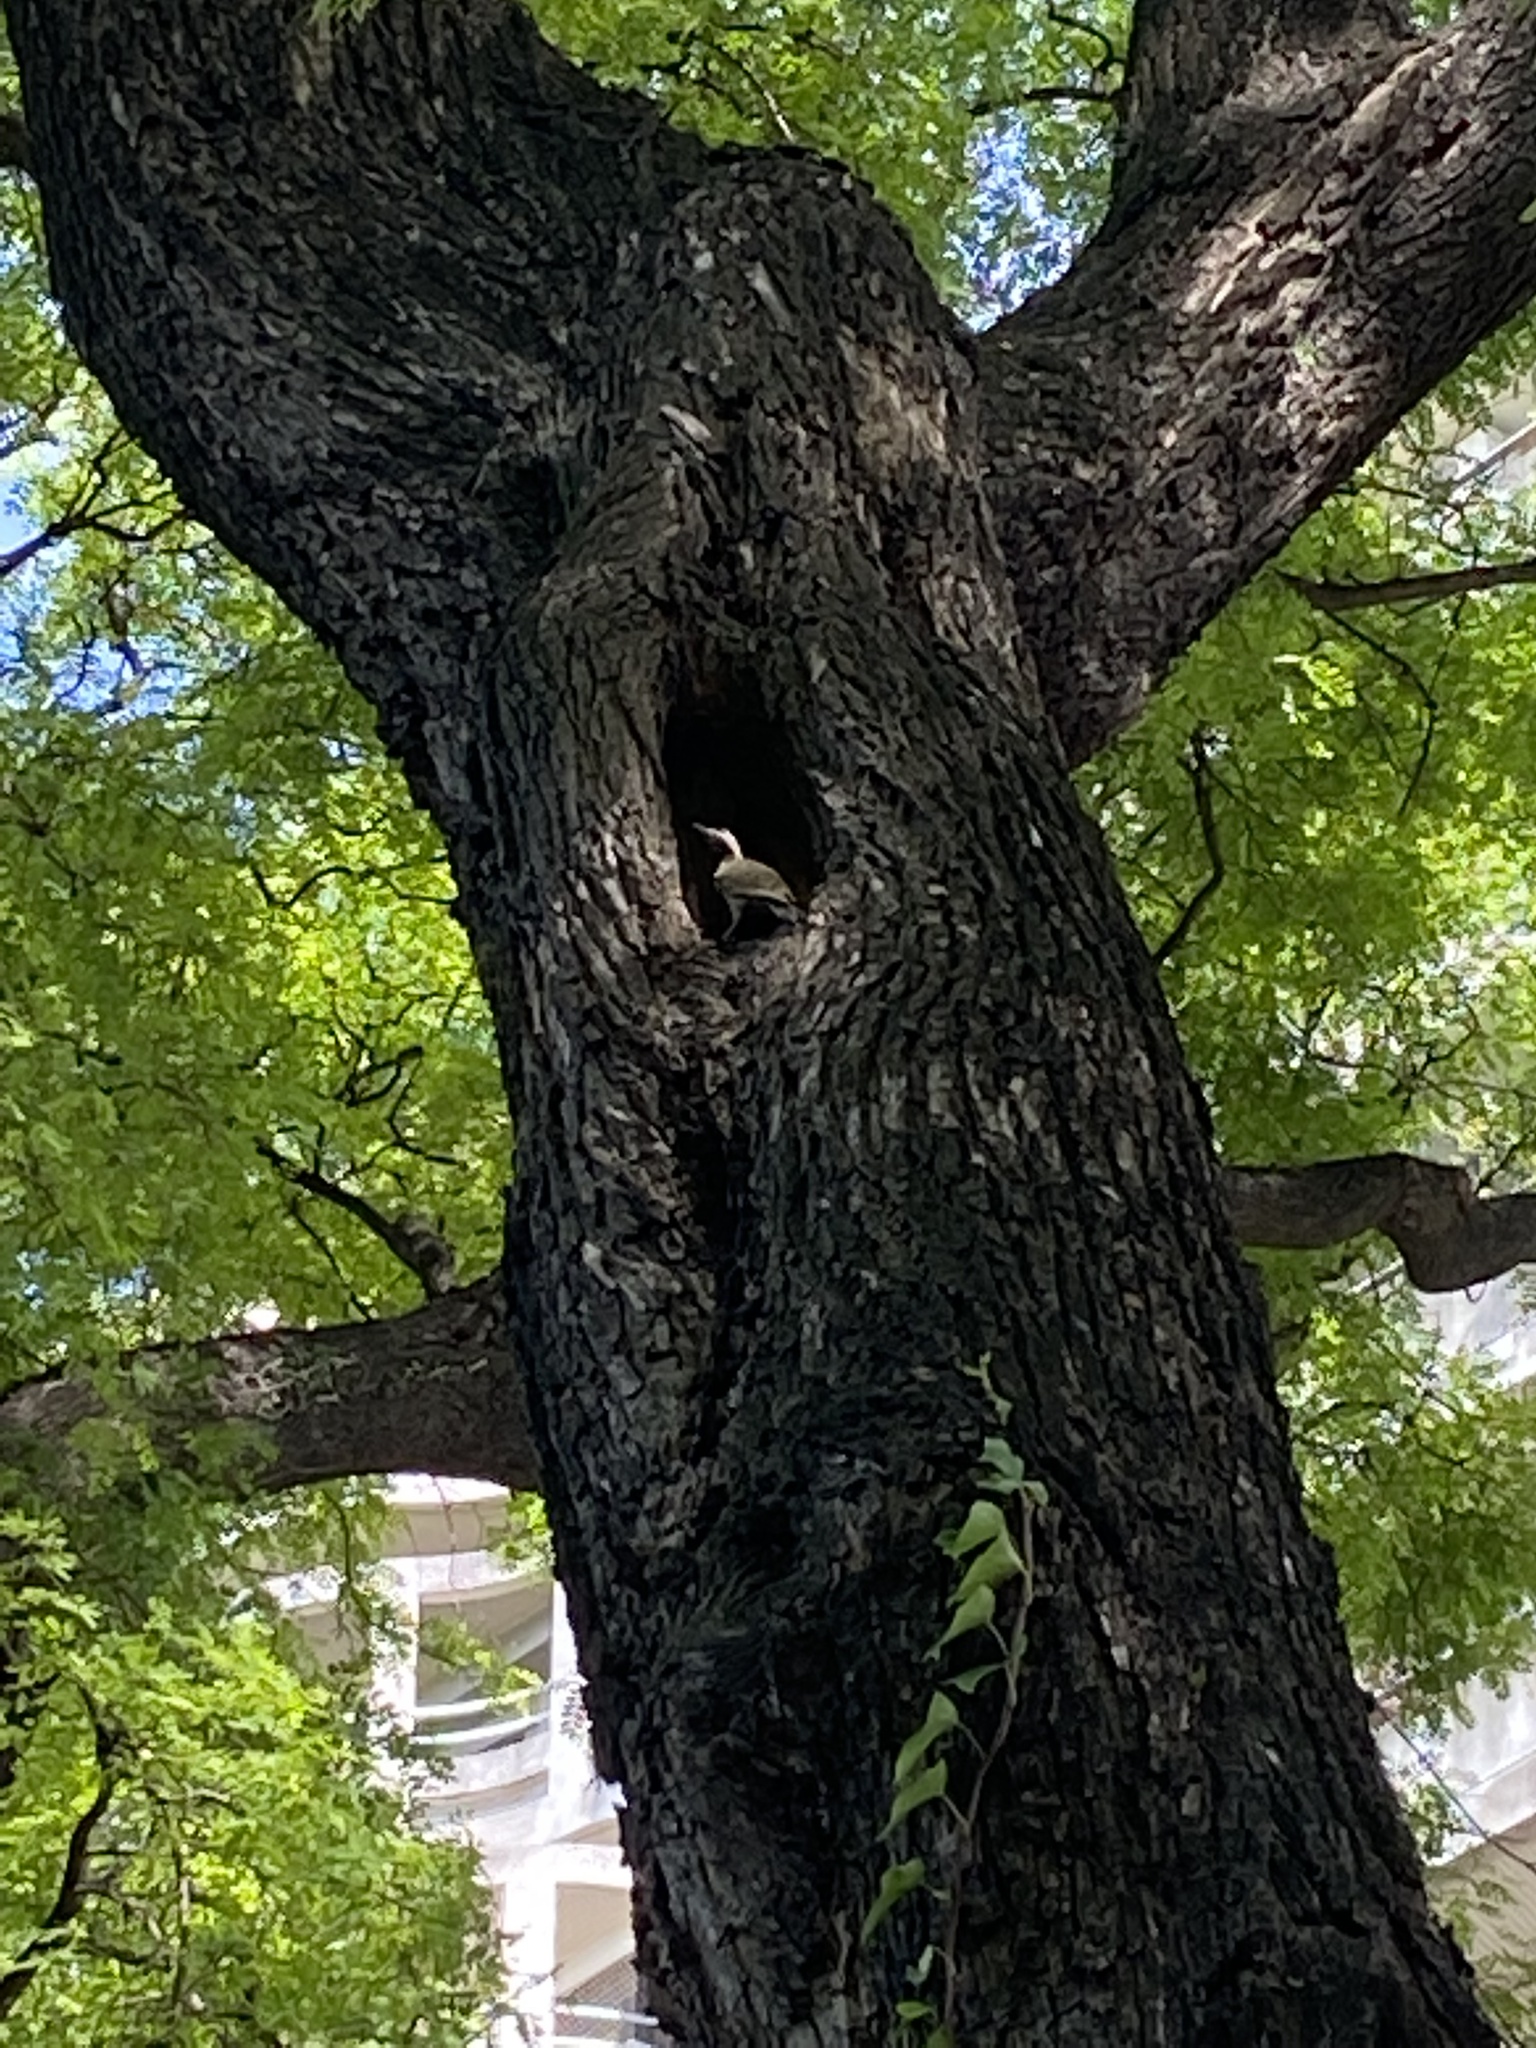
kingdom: Animalia
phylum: Chordata
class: Aves
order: Piciformes
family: Picidae
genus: Colaptes
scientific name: Colaptes melanochloros
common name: Green-barred woodpecker
